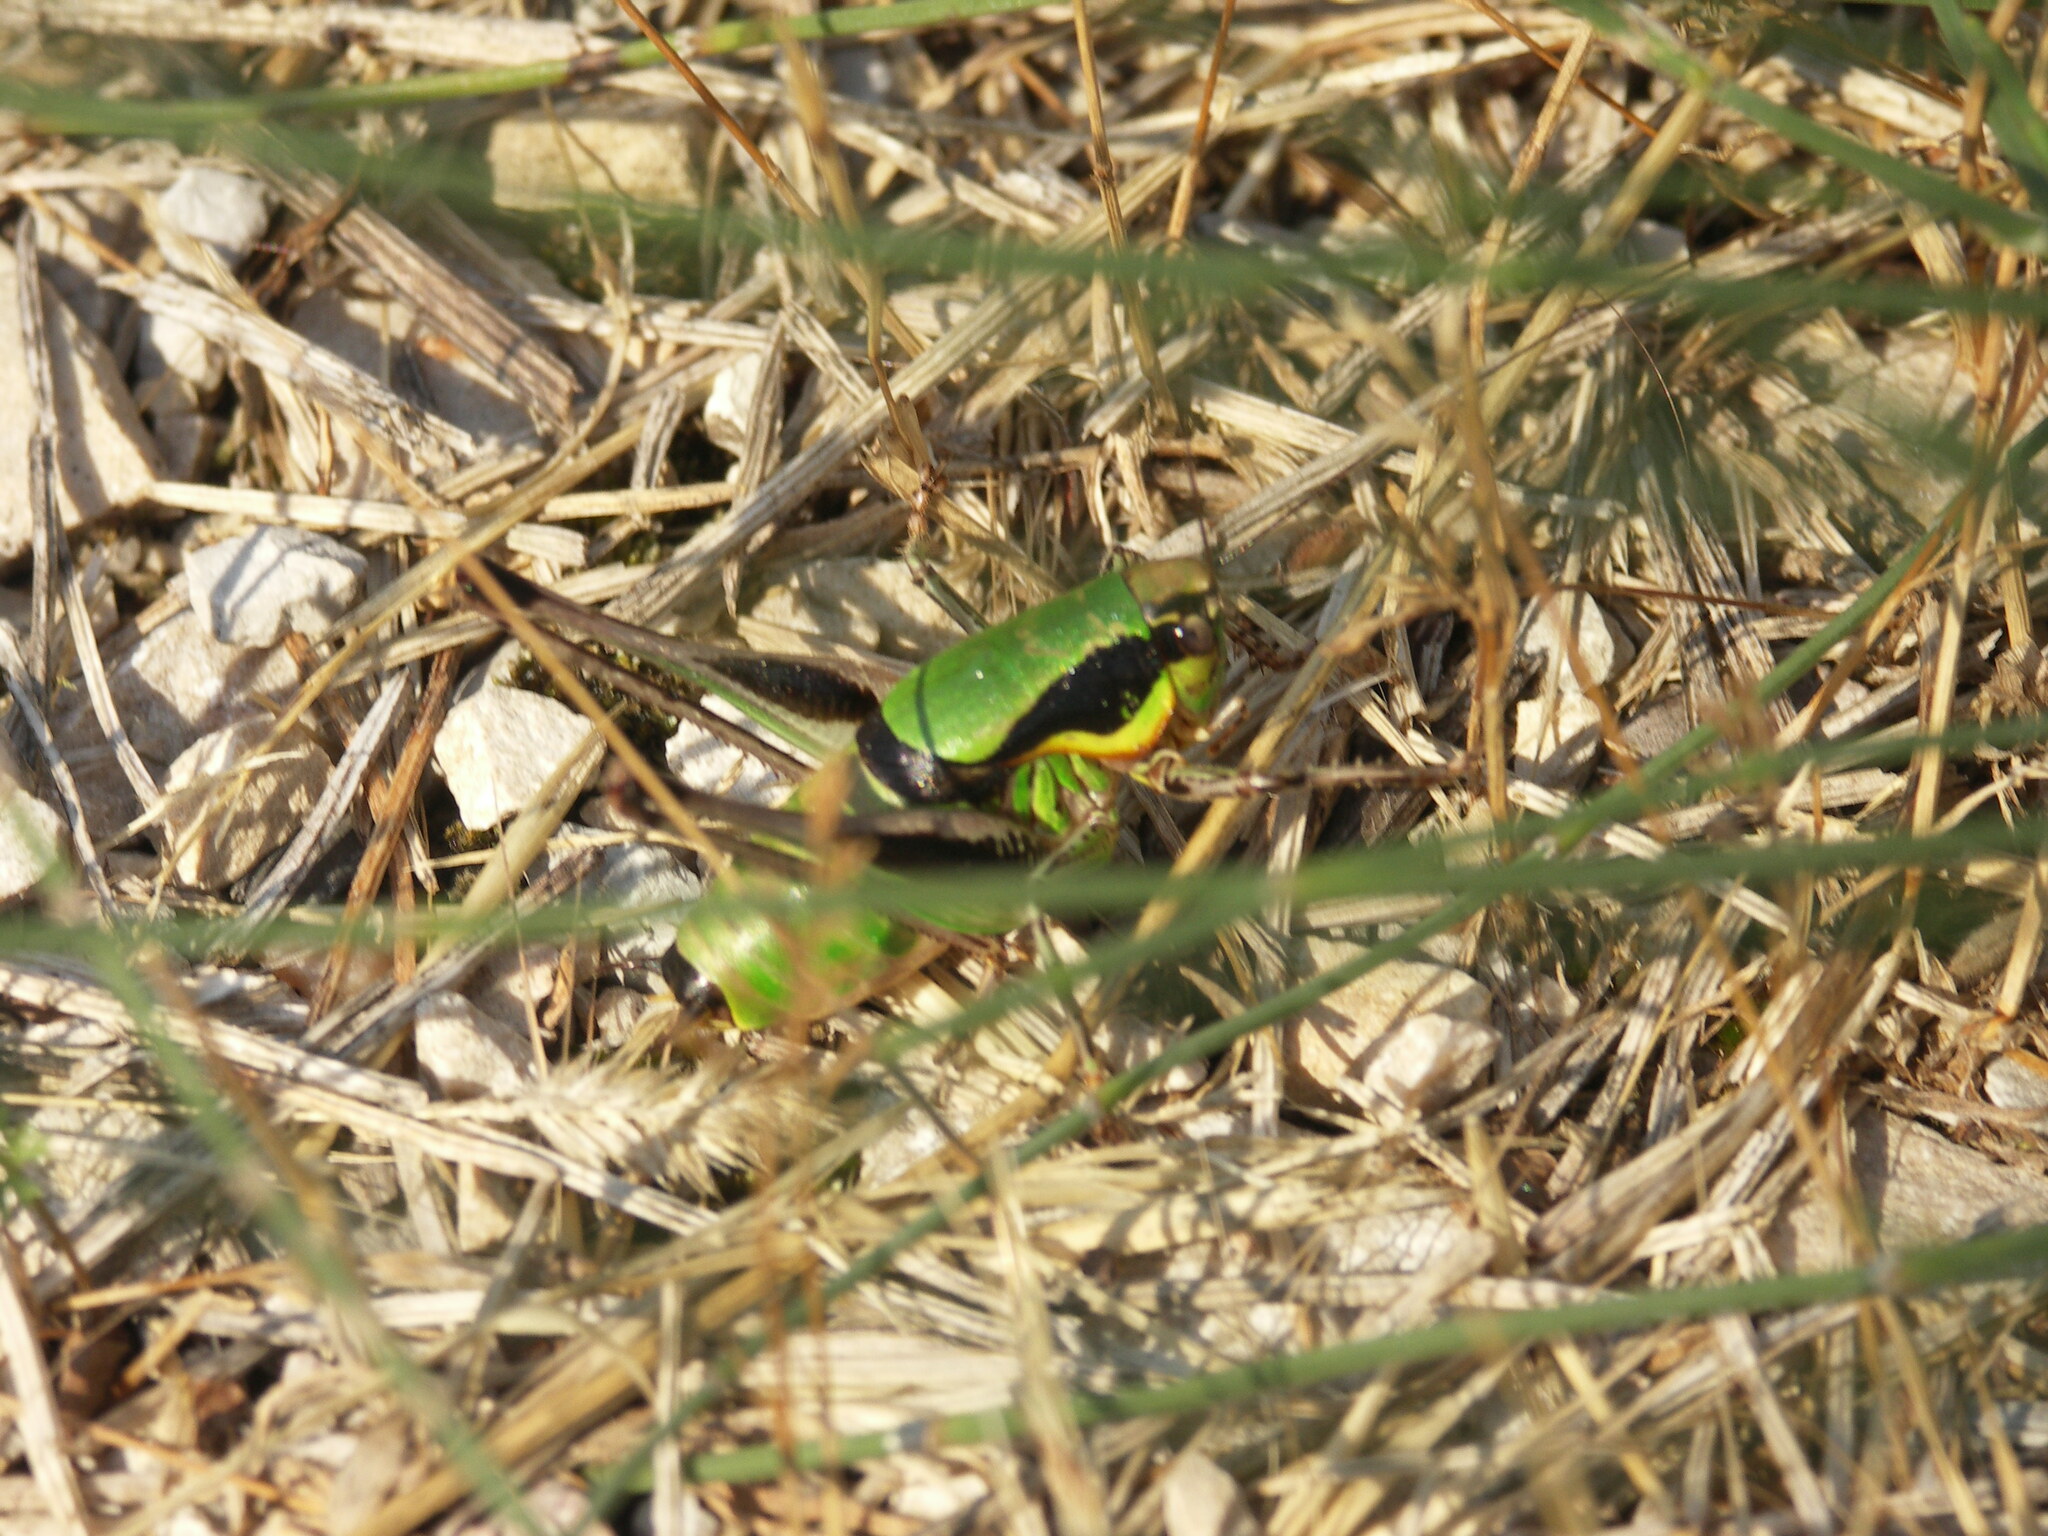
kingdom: Animalia
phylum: Arthropoda
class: Insecta
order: Orthoptera
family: Tettigoniidae
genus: Eupholidoptera
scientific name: Eupholidoptera chabrieri
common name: Chabrier's marbled bush-cricket
